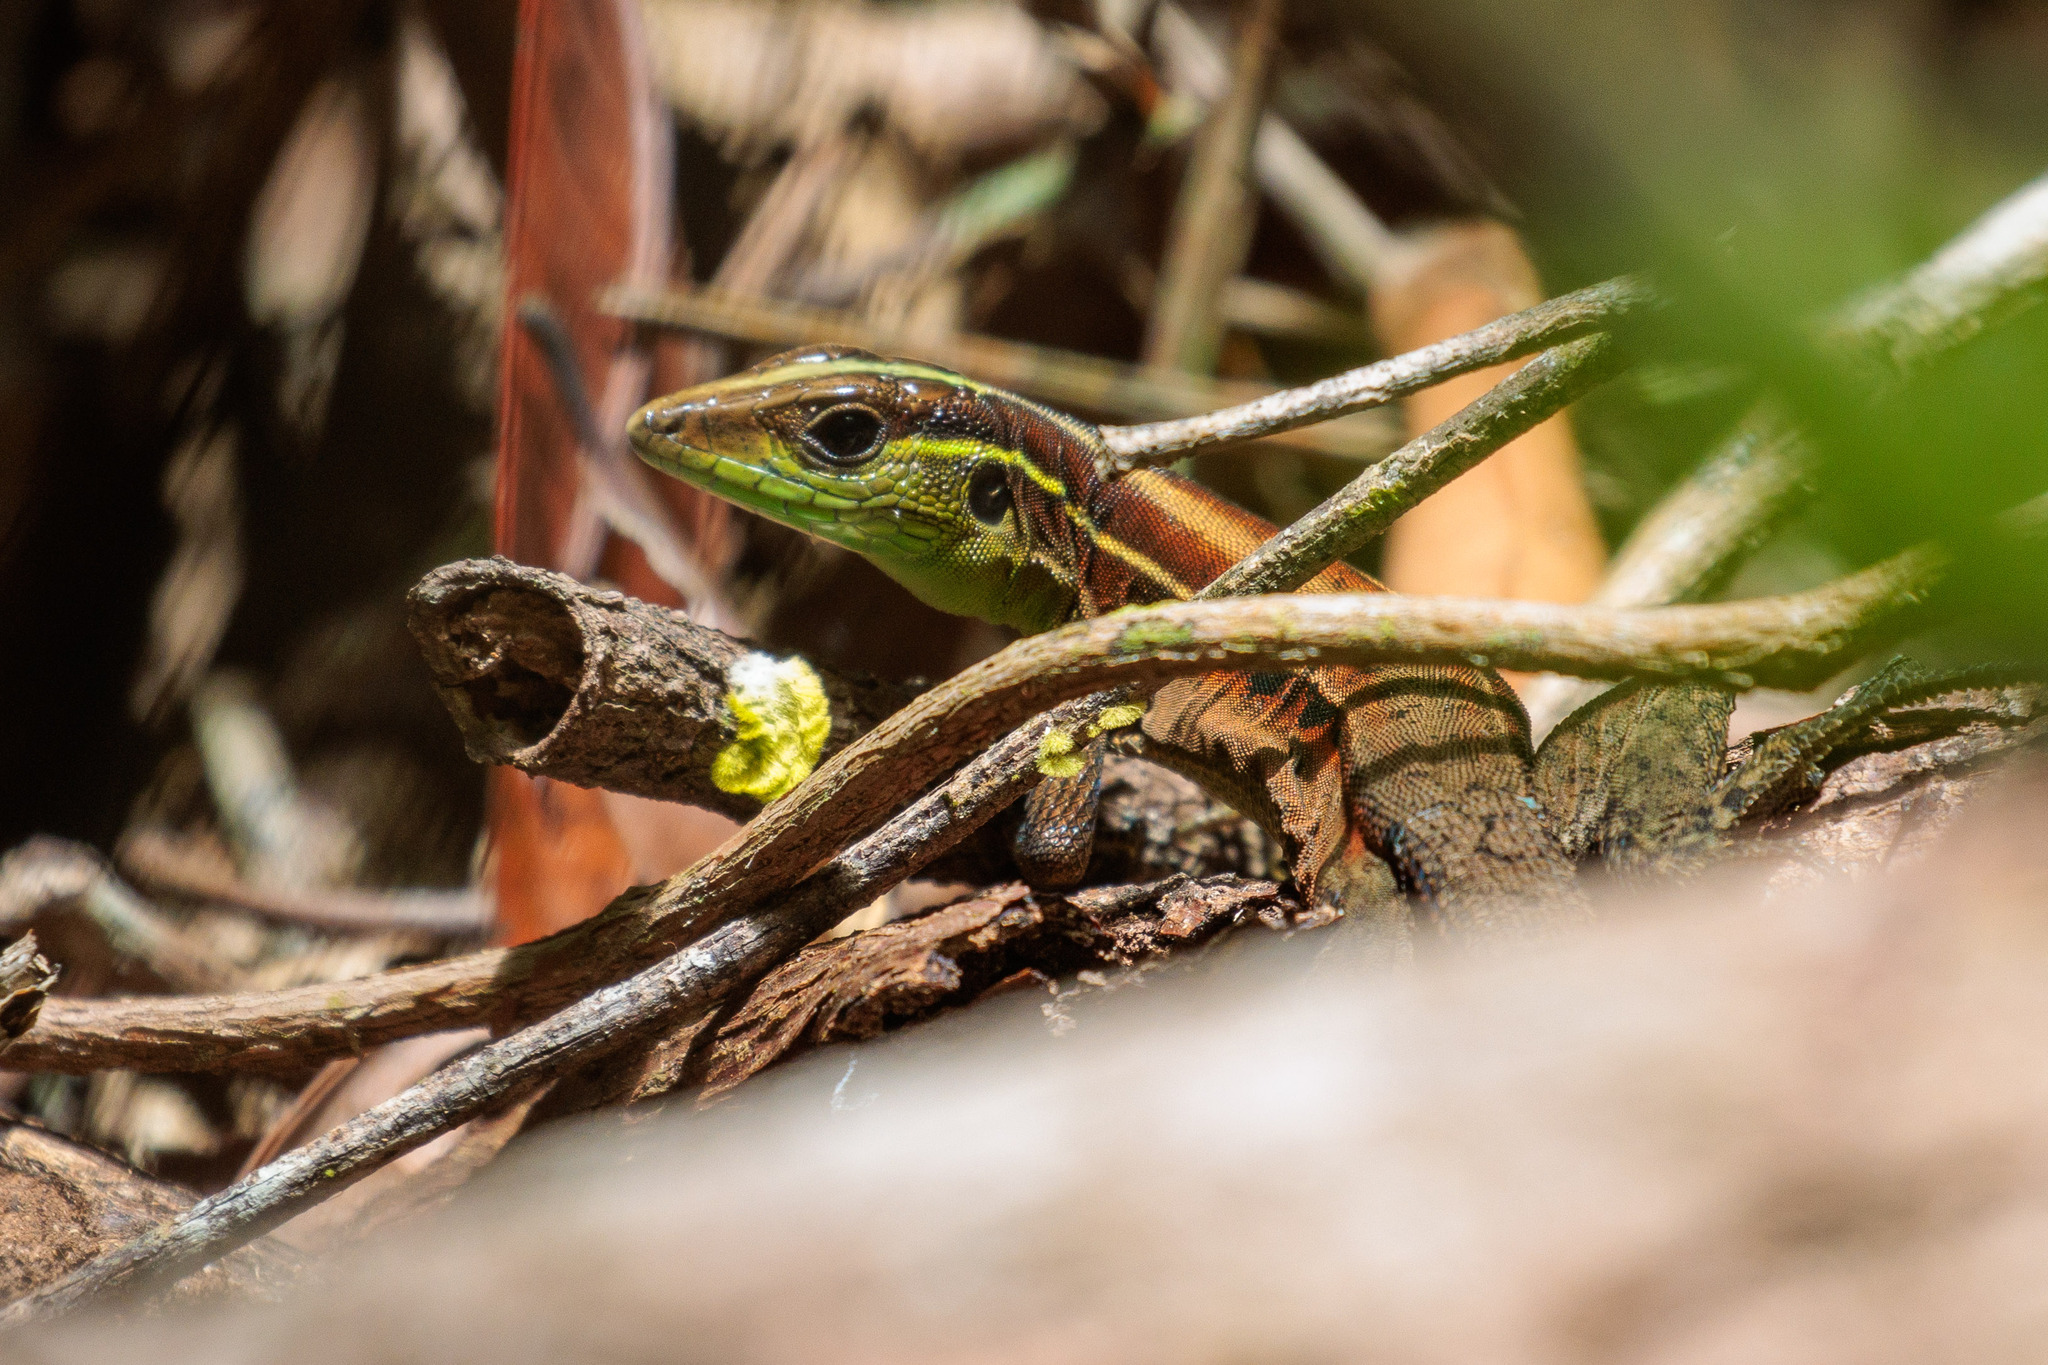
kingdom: Animalia
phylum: Chordata
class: Squamata
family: Teiidae
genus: Kentropyx
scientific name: Kentropyx calcarata
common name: Striped forest whiptail
